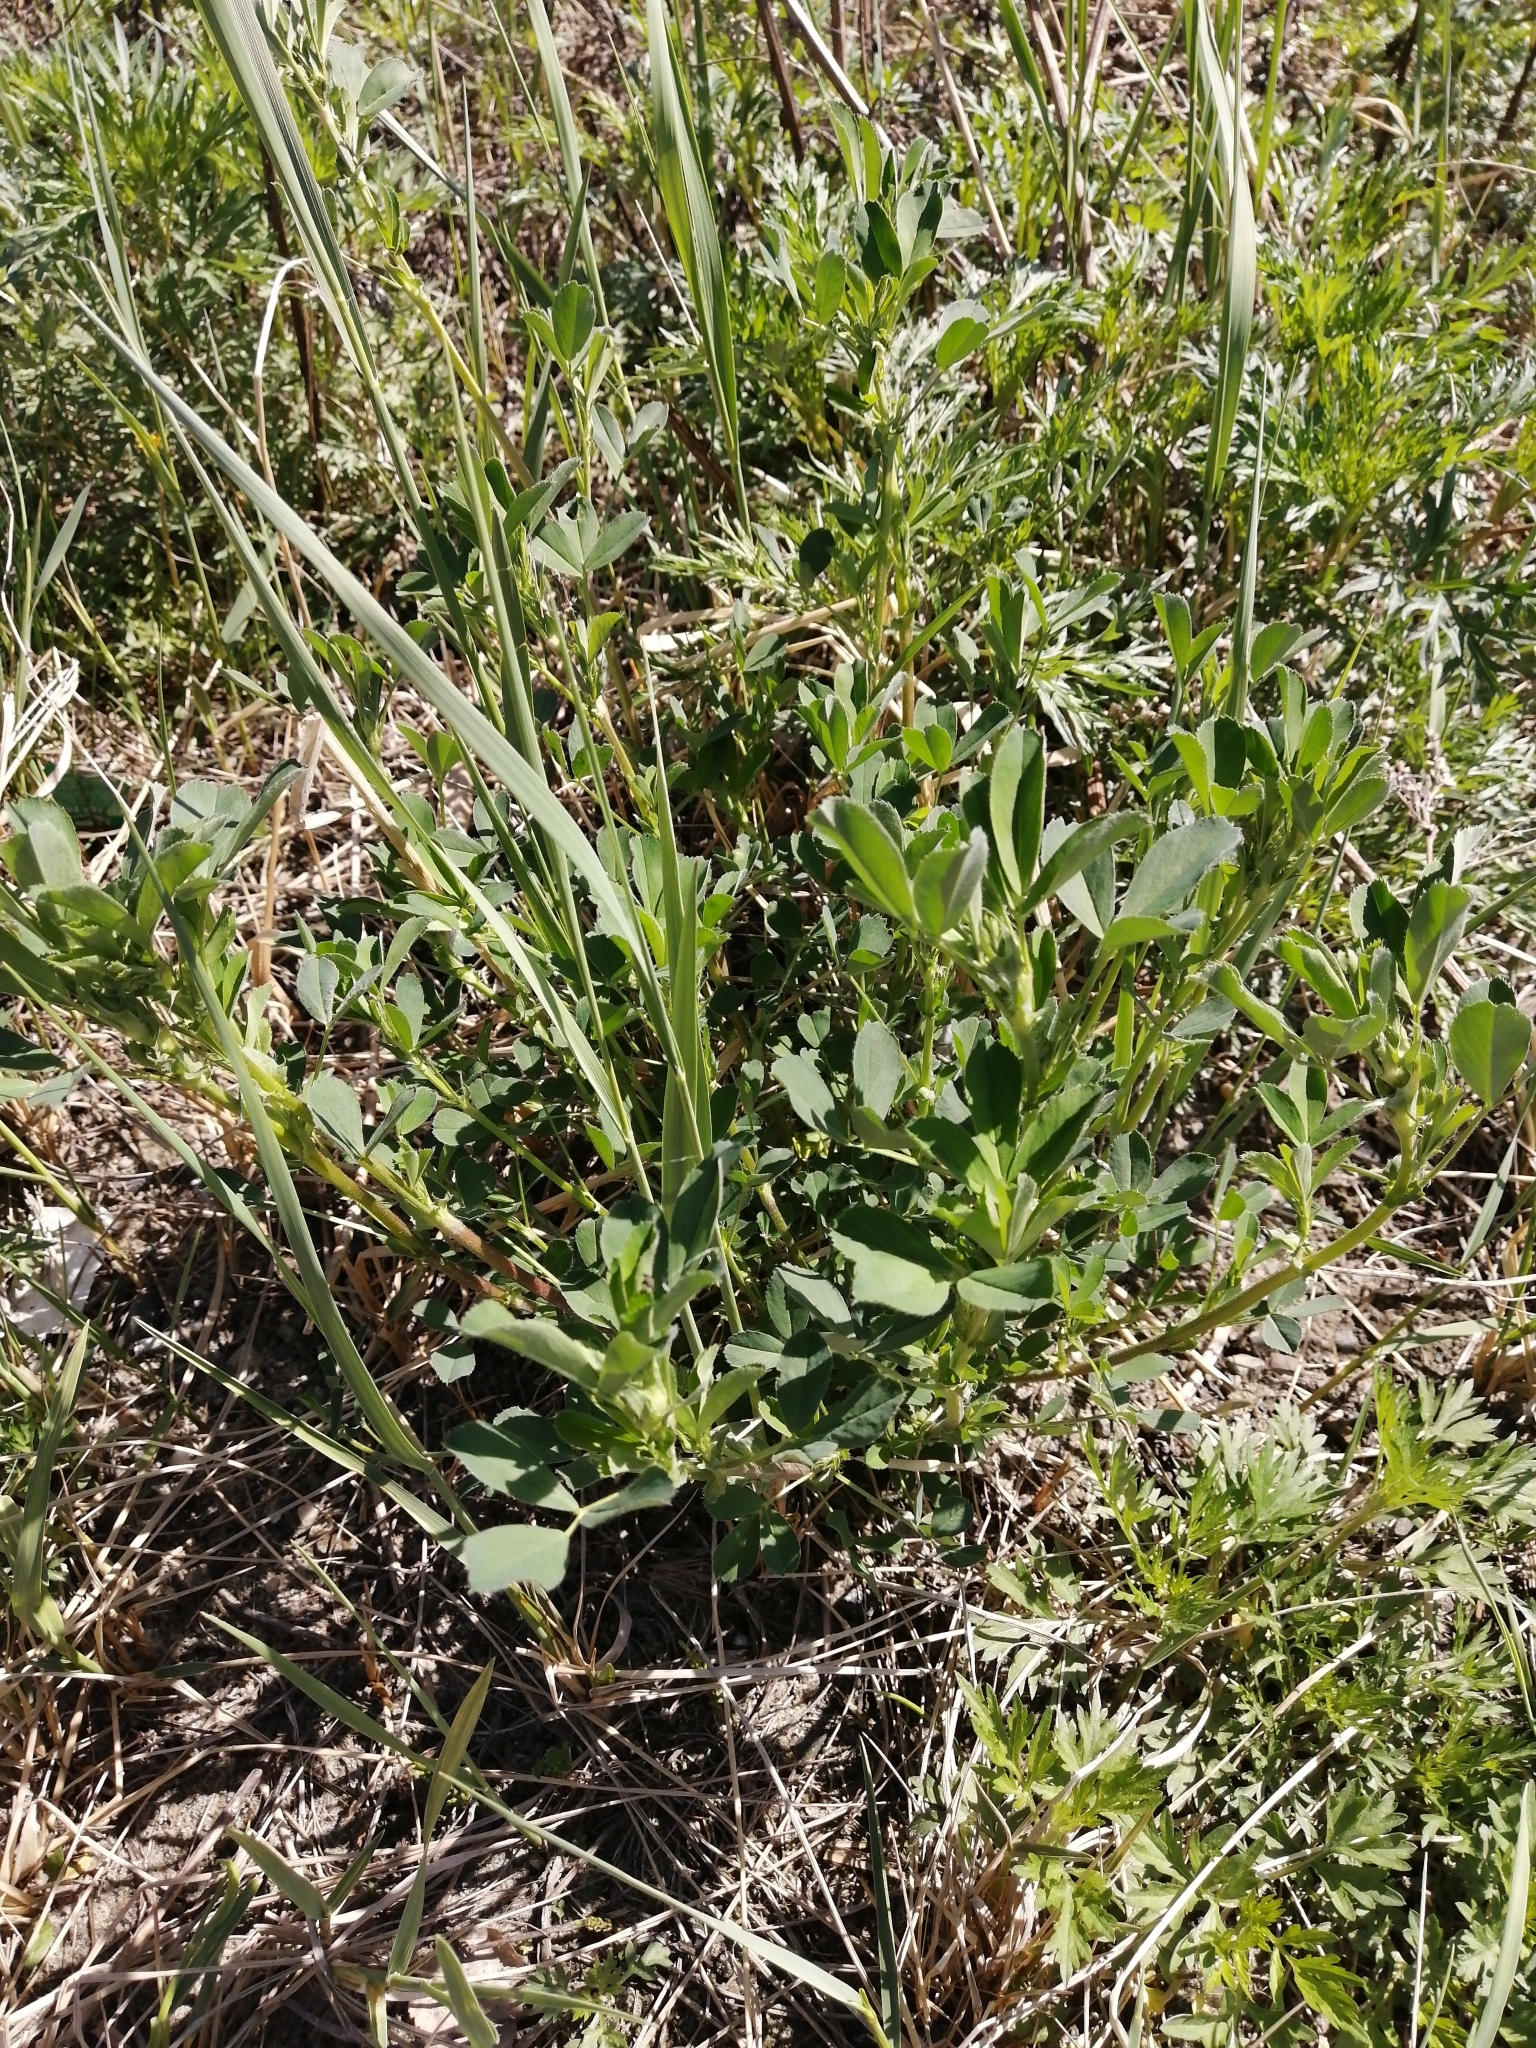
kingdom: Plantae
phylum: Tracheophyta
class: Magnoliopsida
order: Fabales
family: Fabaceae
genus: Medicago
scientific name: Medicago sativa
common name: Alfalfa
